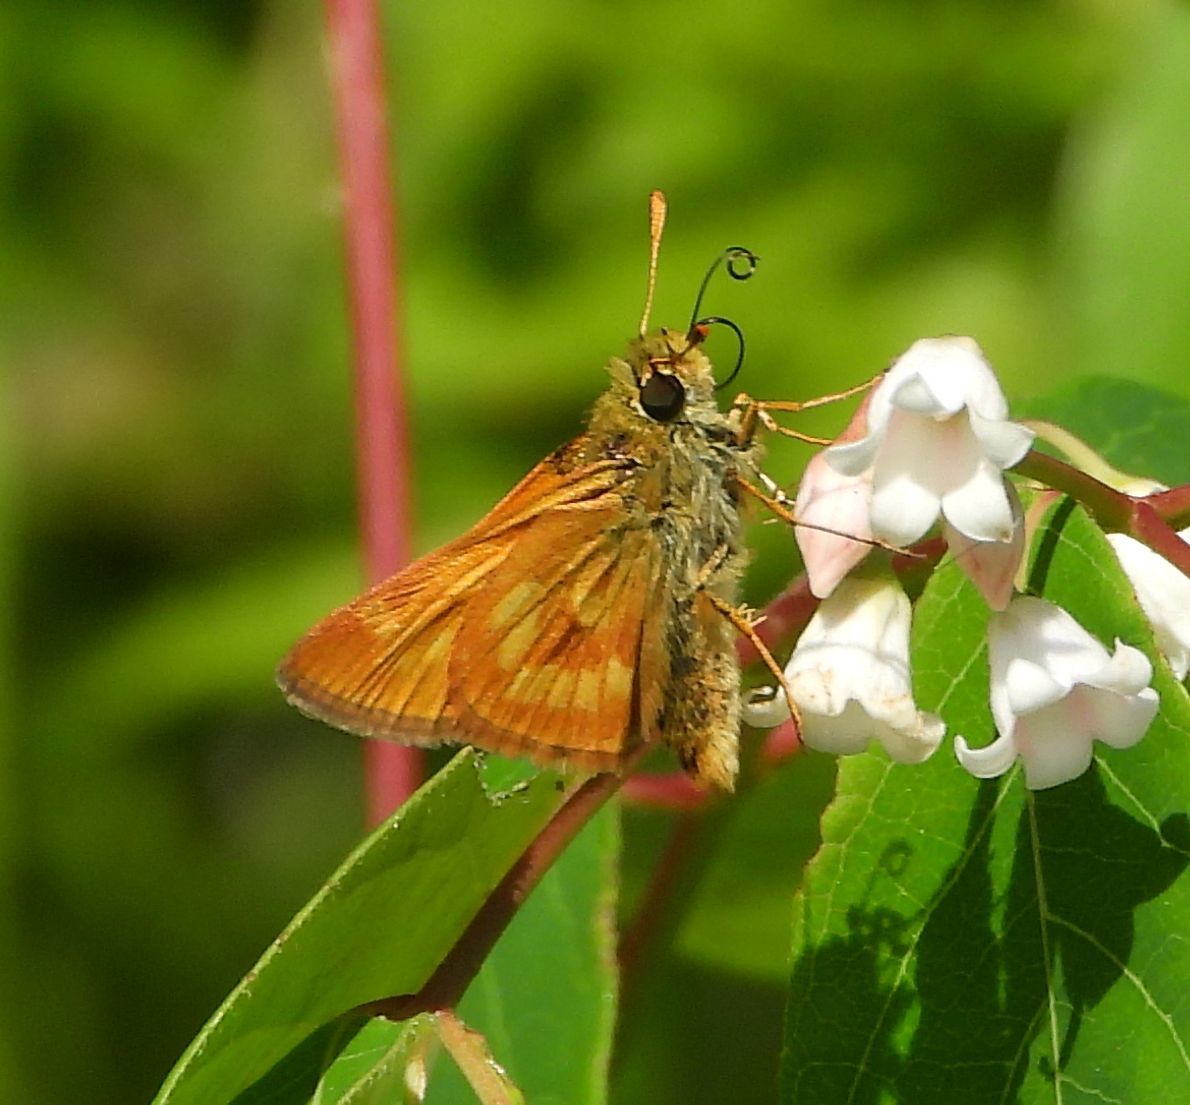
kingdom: Animalia
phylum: Arthropoda
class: Insecta
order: Lepidoptera
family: Hesperiidae
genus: Polites
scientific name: Polites mystic
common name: Long dash
